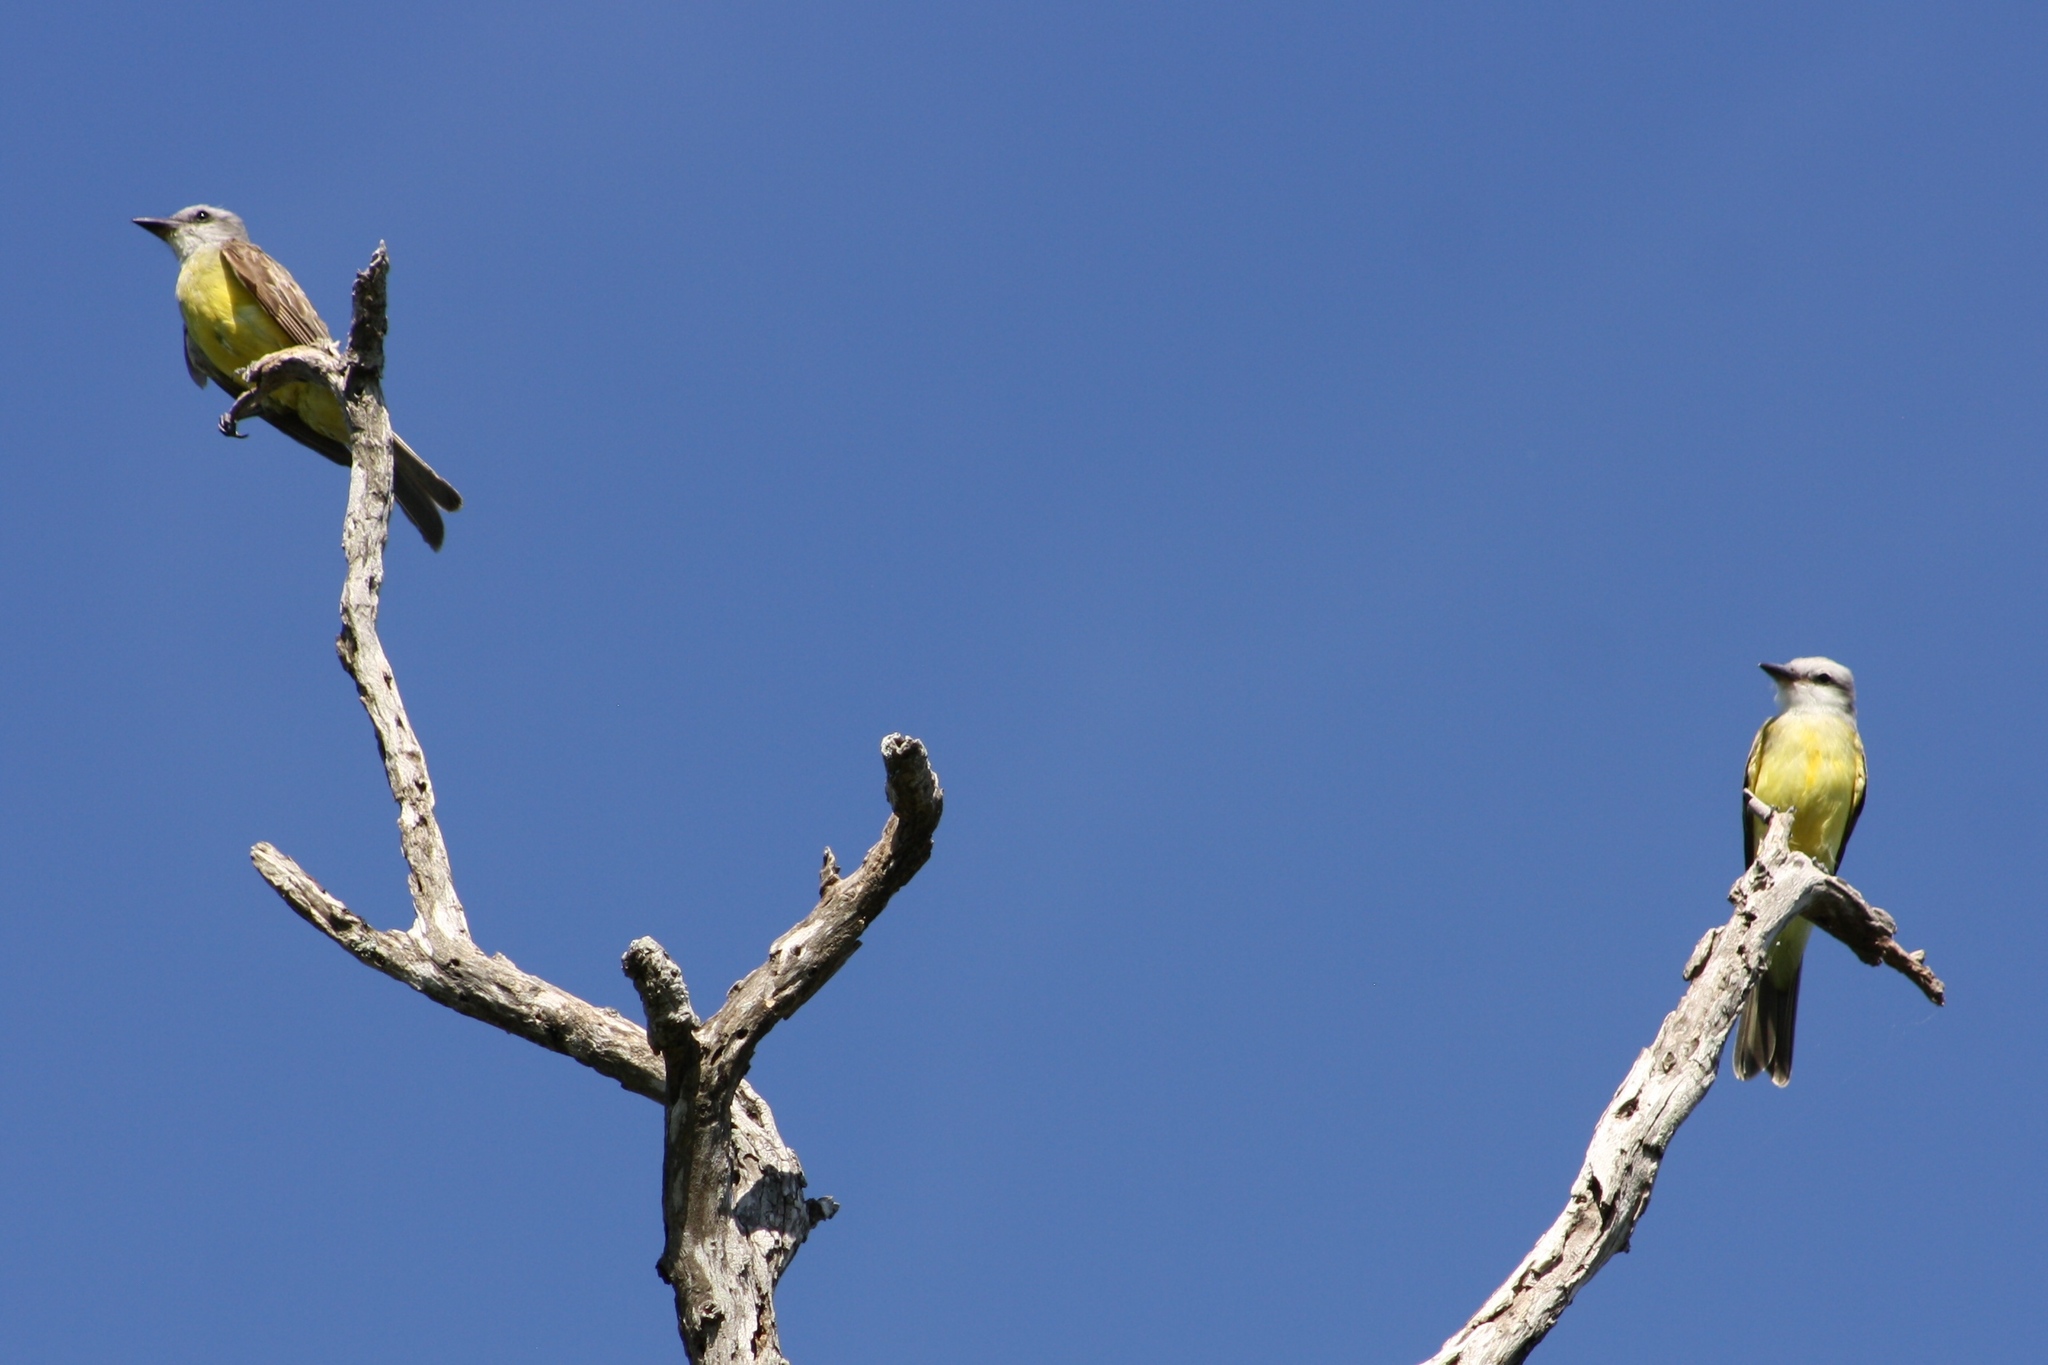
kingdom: Animalia
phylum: Chordata
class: Aves
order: Passeriformes
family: Tyrannidae
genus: Tyrannus
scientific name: Tyrannus
